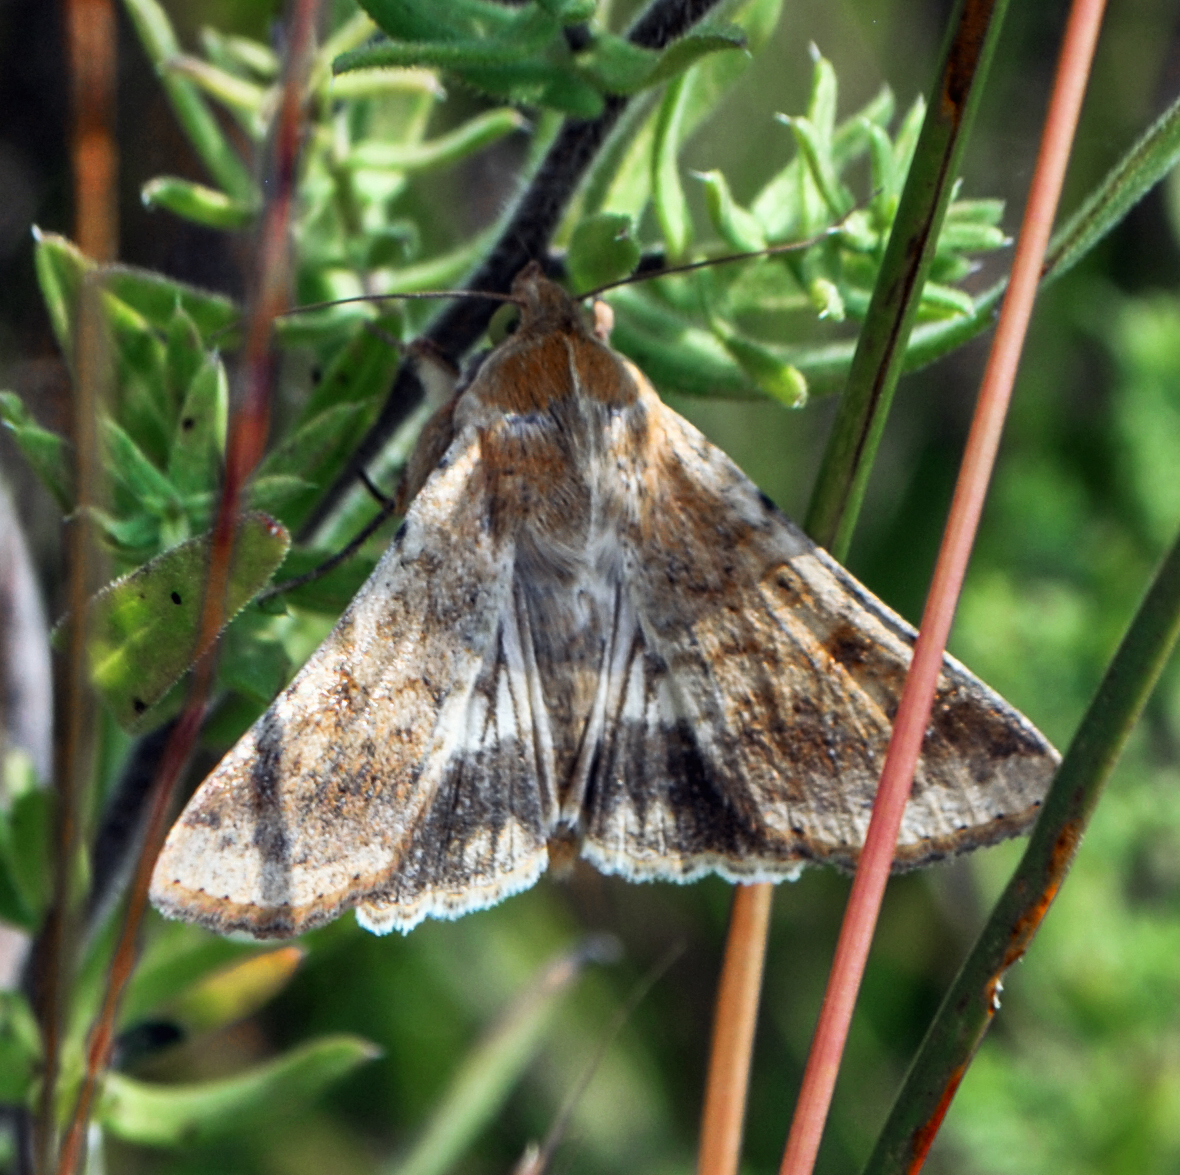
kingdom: Animalia
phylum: Arthropoda
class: Insecta
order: Lepidoptera
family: Noctuidae
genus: Helicoverpa
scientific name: Helicoverpa zea
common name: Bollworm
